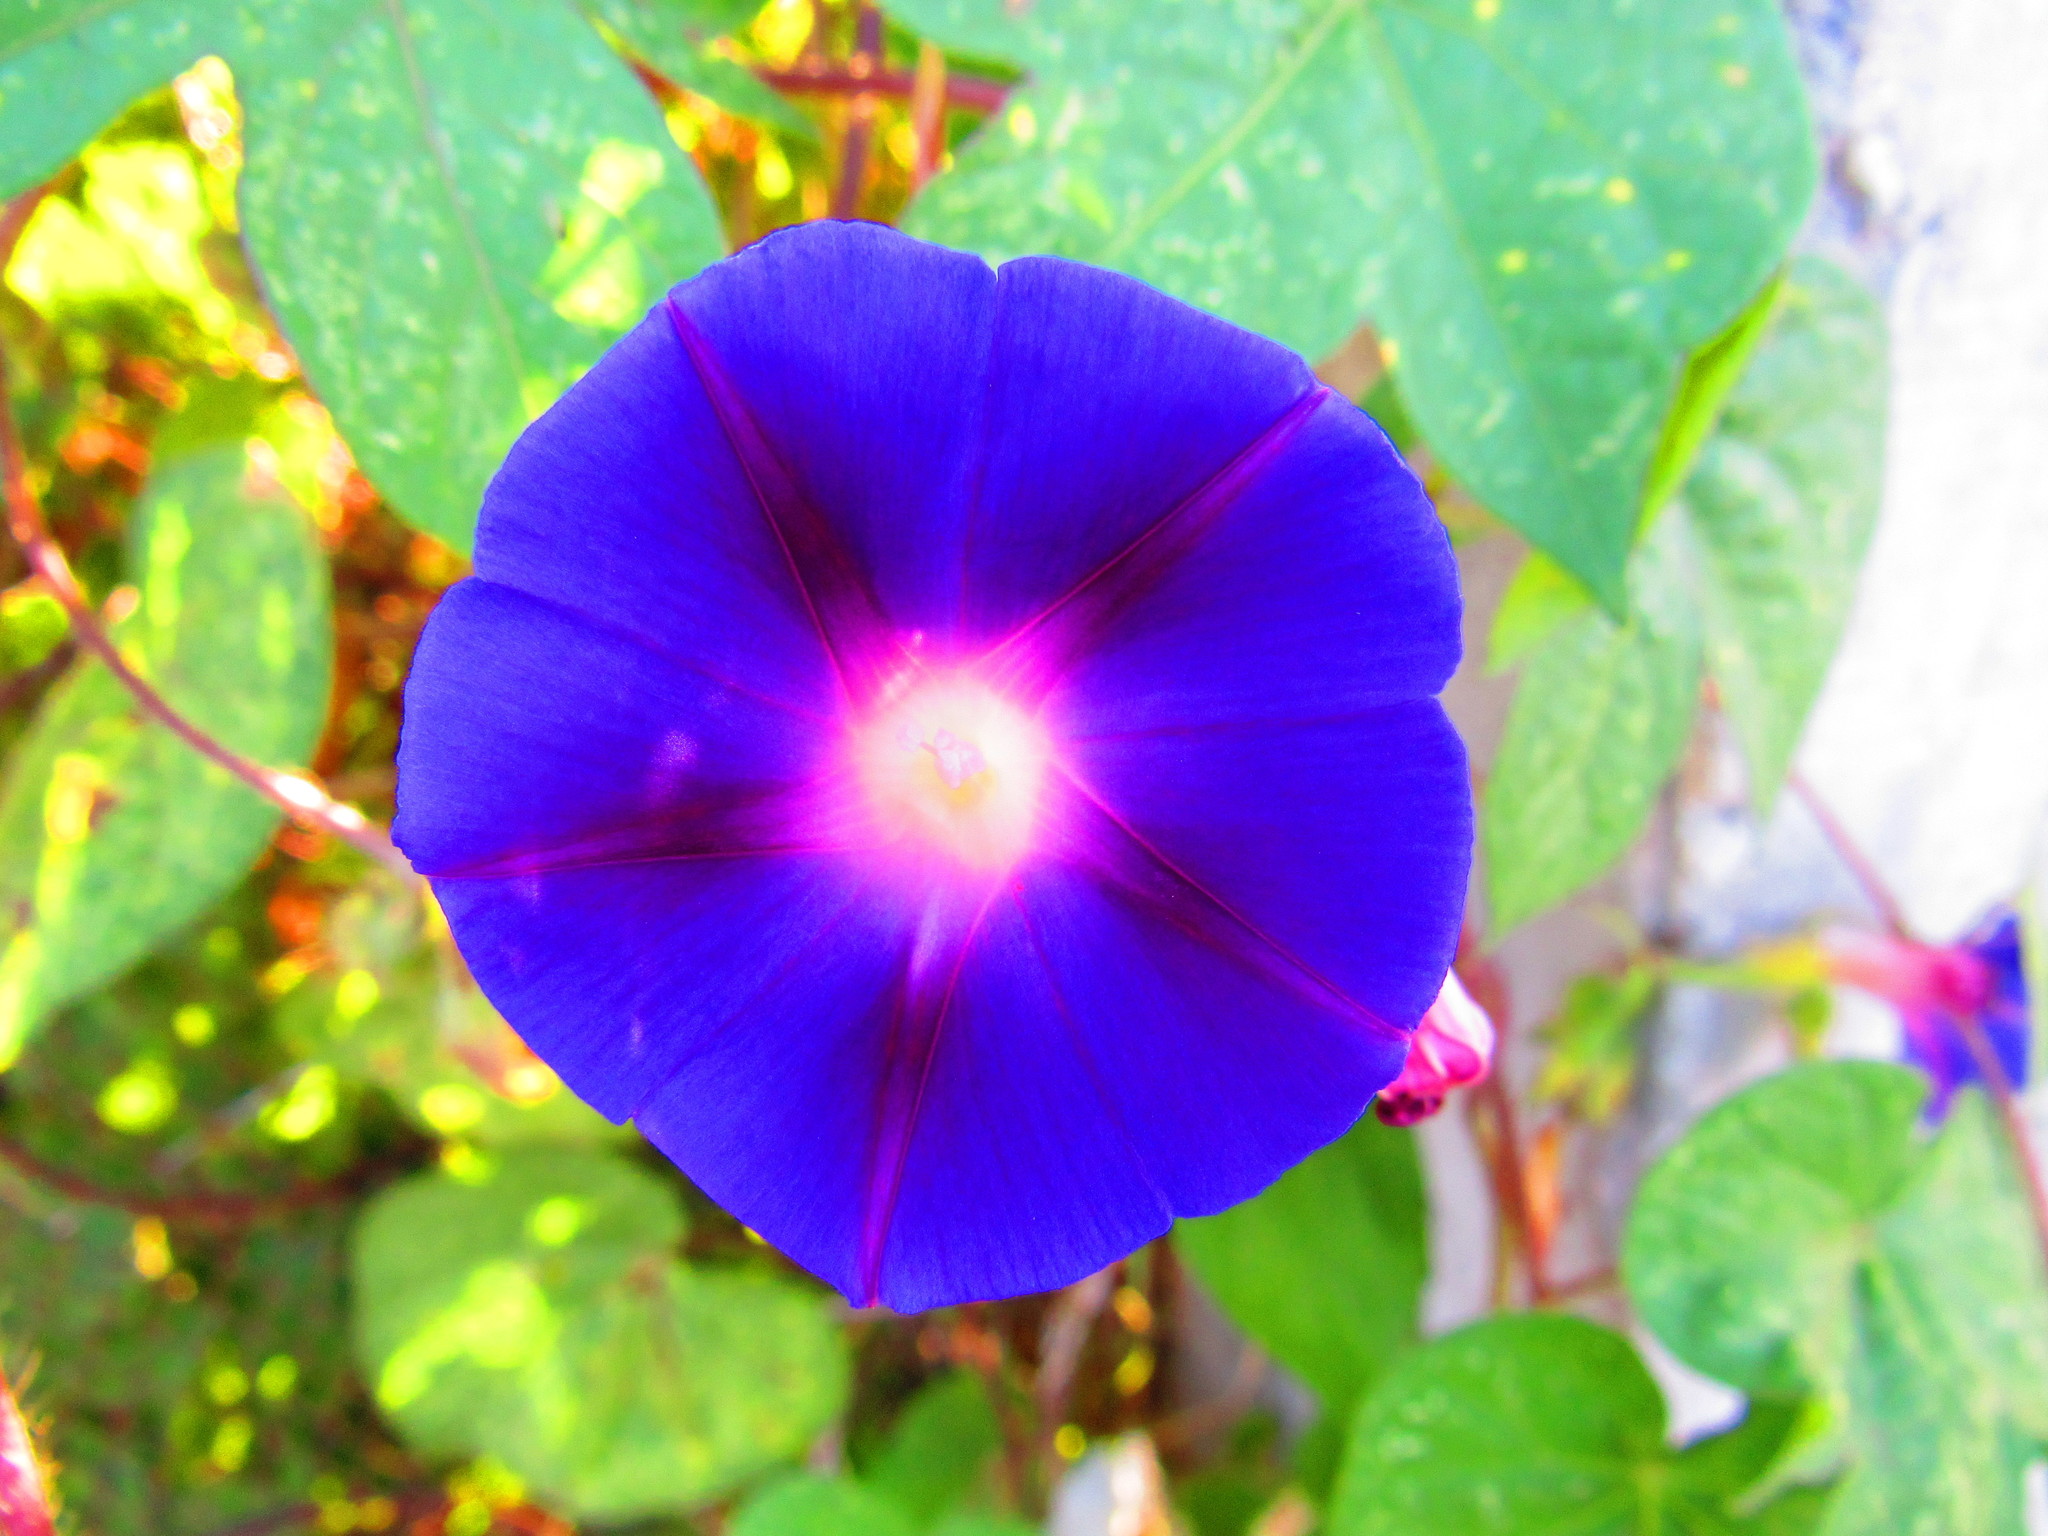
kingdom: Plantae
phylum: Tracheophyta
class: Magnoliopsida
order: Solanales
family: Convolvulaceae
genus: Ipomoea
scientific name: Ipomoea purpurea
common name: Common morning-glory
